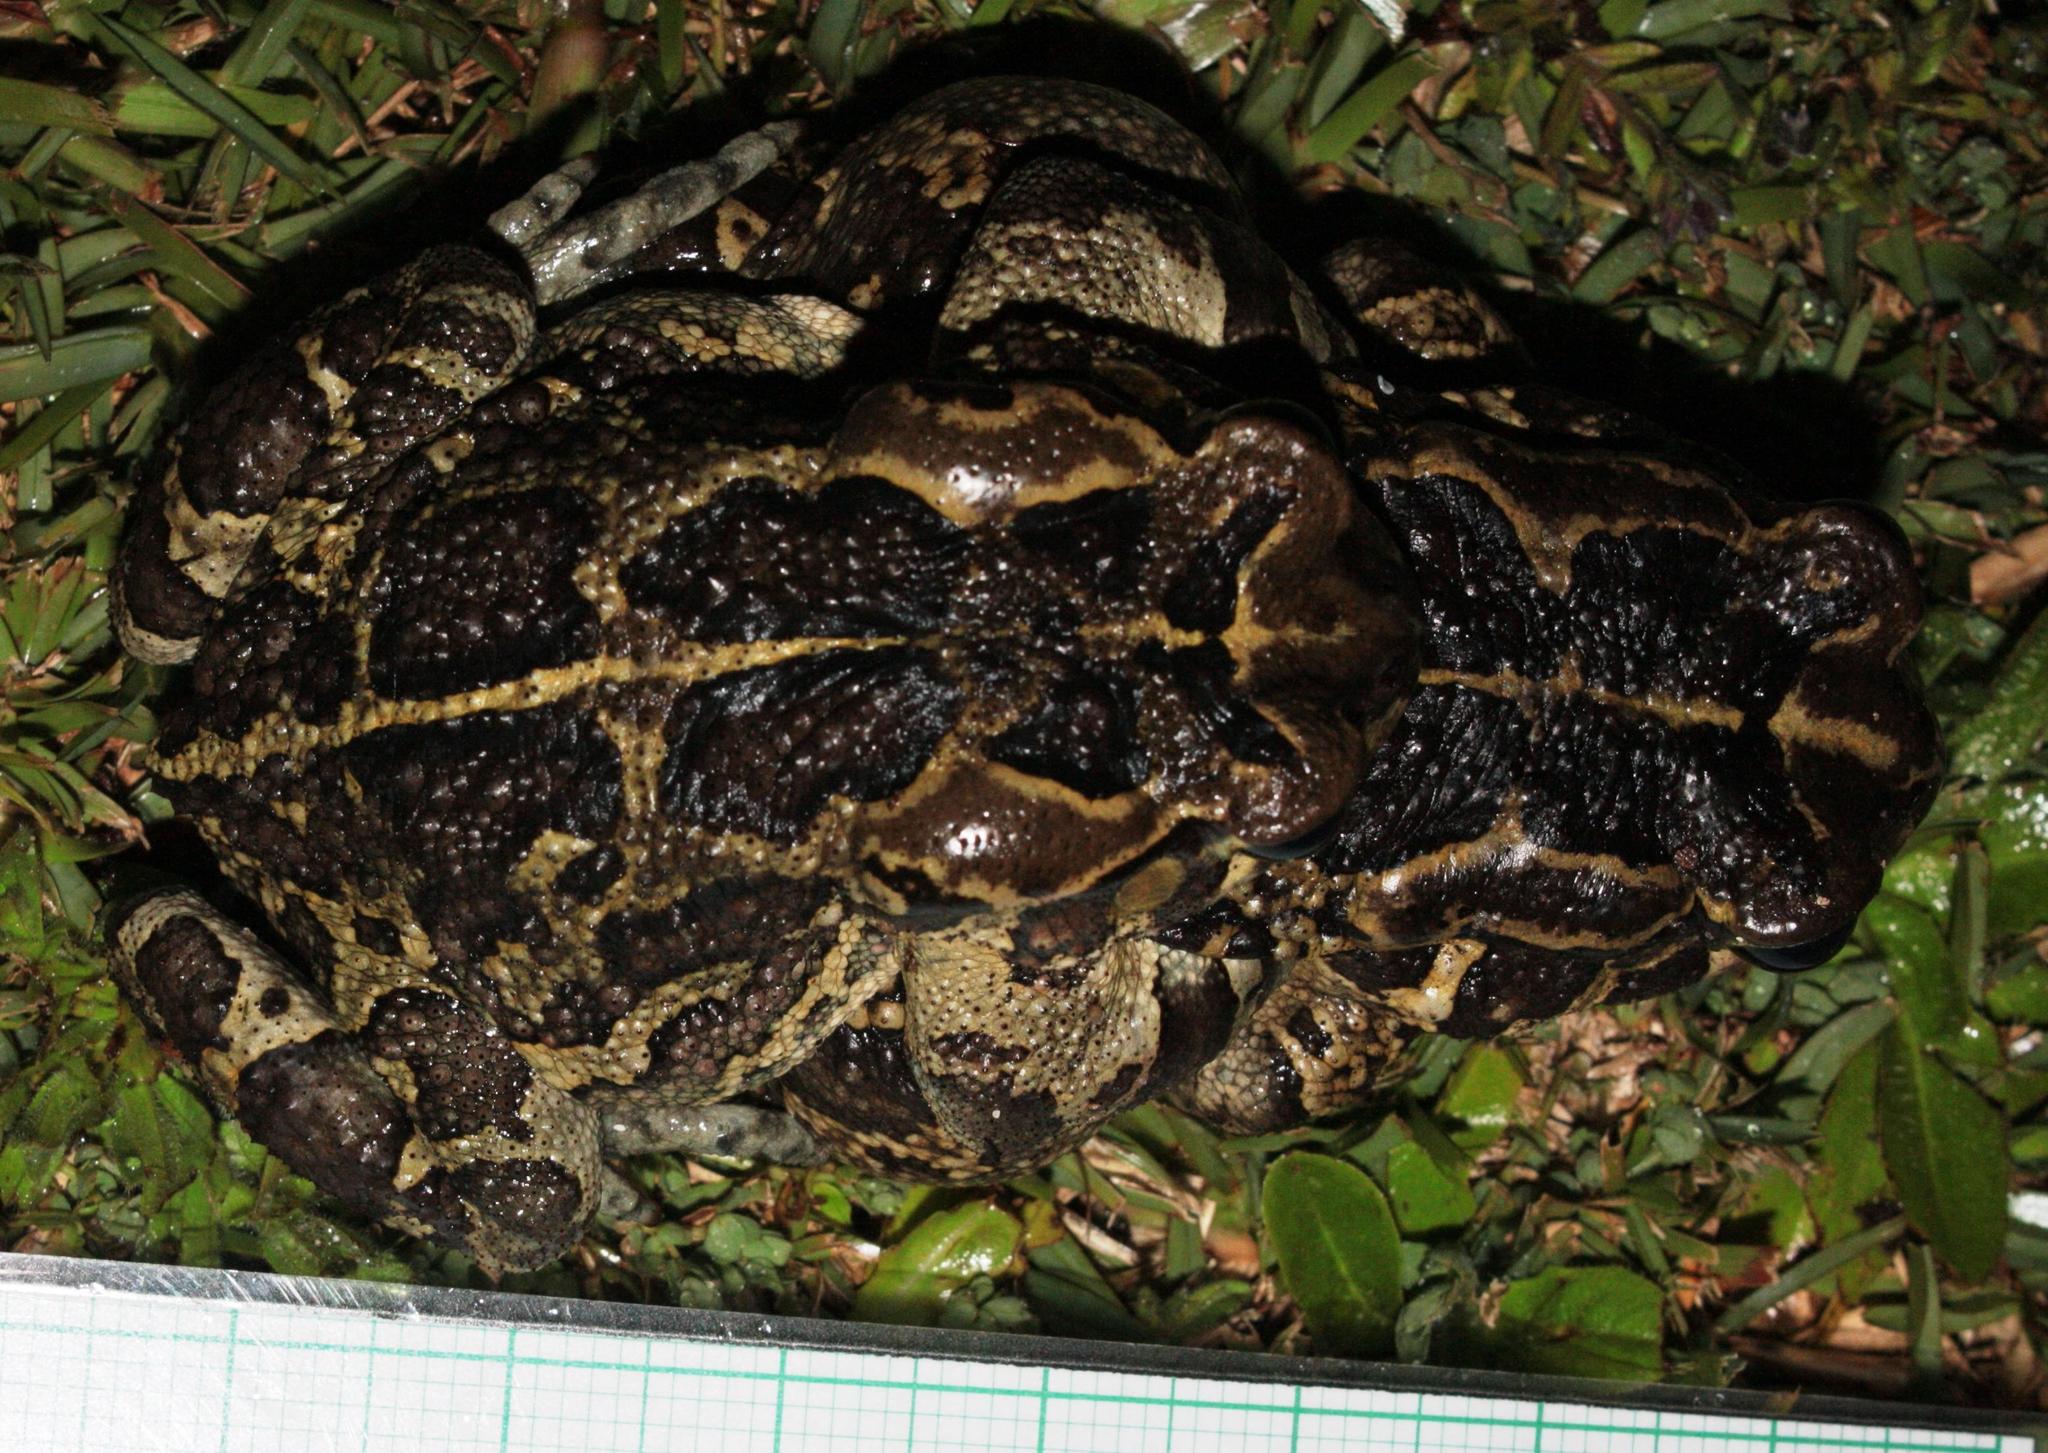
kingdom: Animalia
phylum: Chordata
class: Amphibia
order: Anura
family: Bufonidae
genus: Sclerophrys
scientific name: Sclerophrys pantherina
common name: Panther toad
